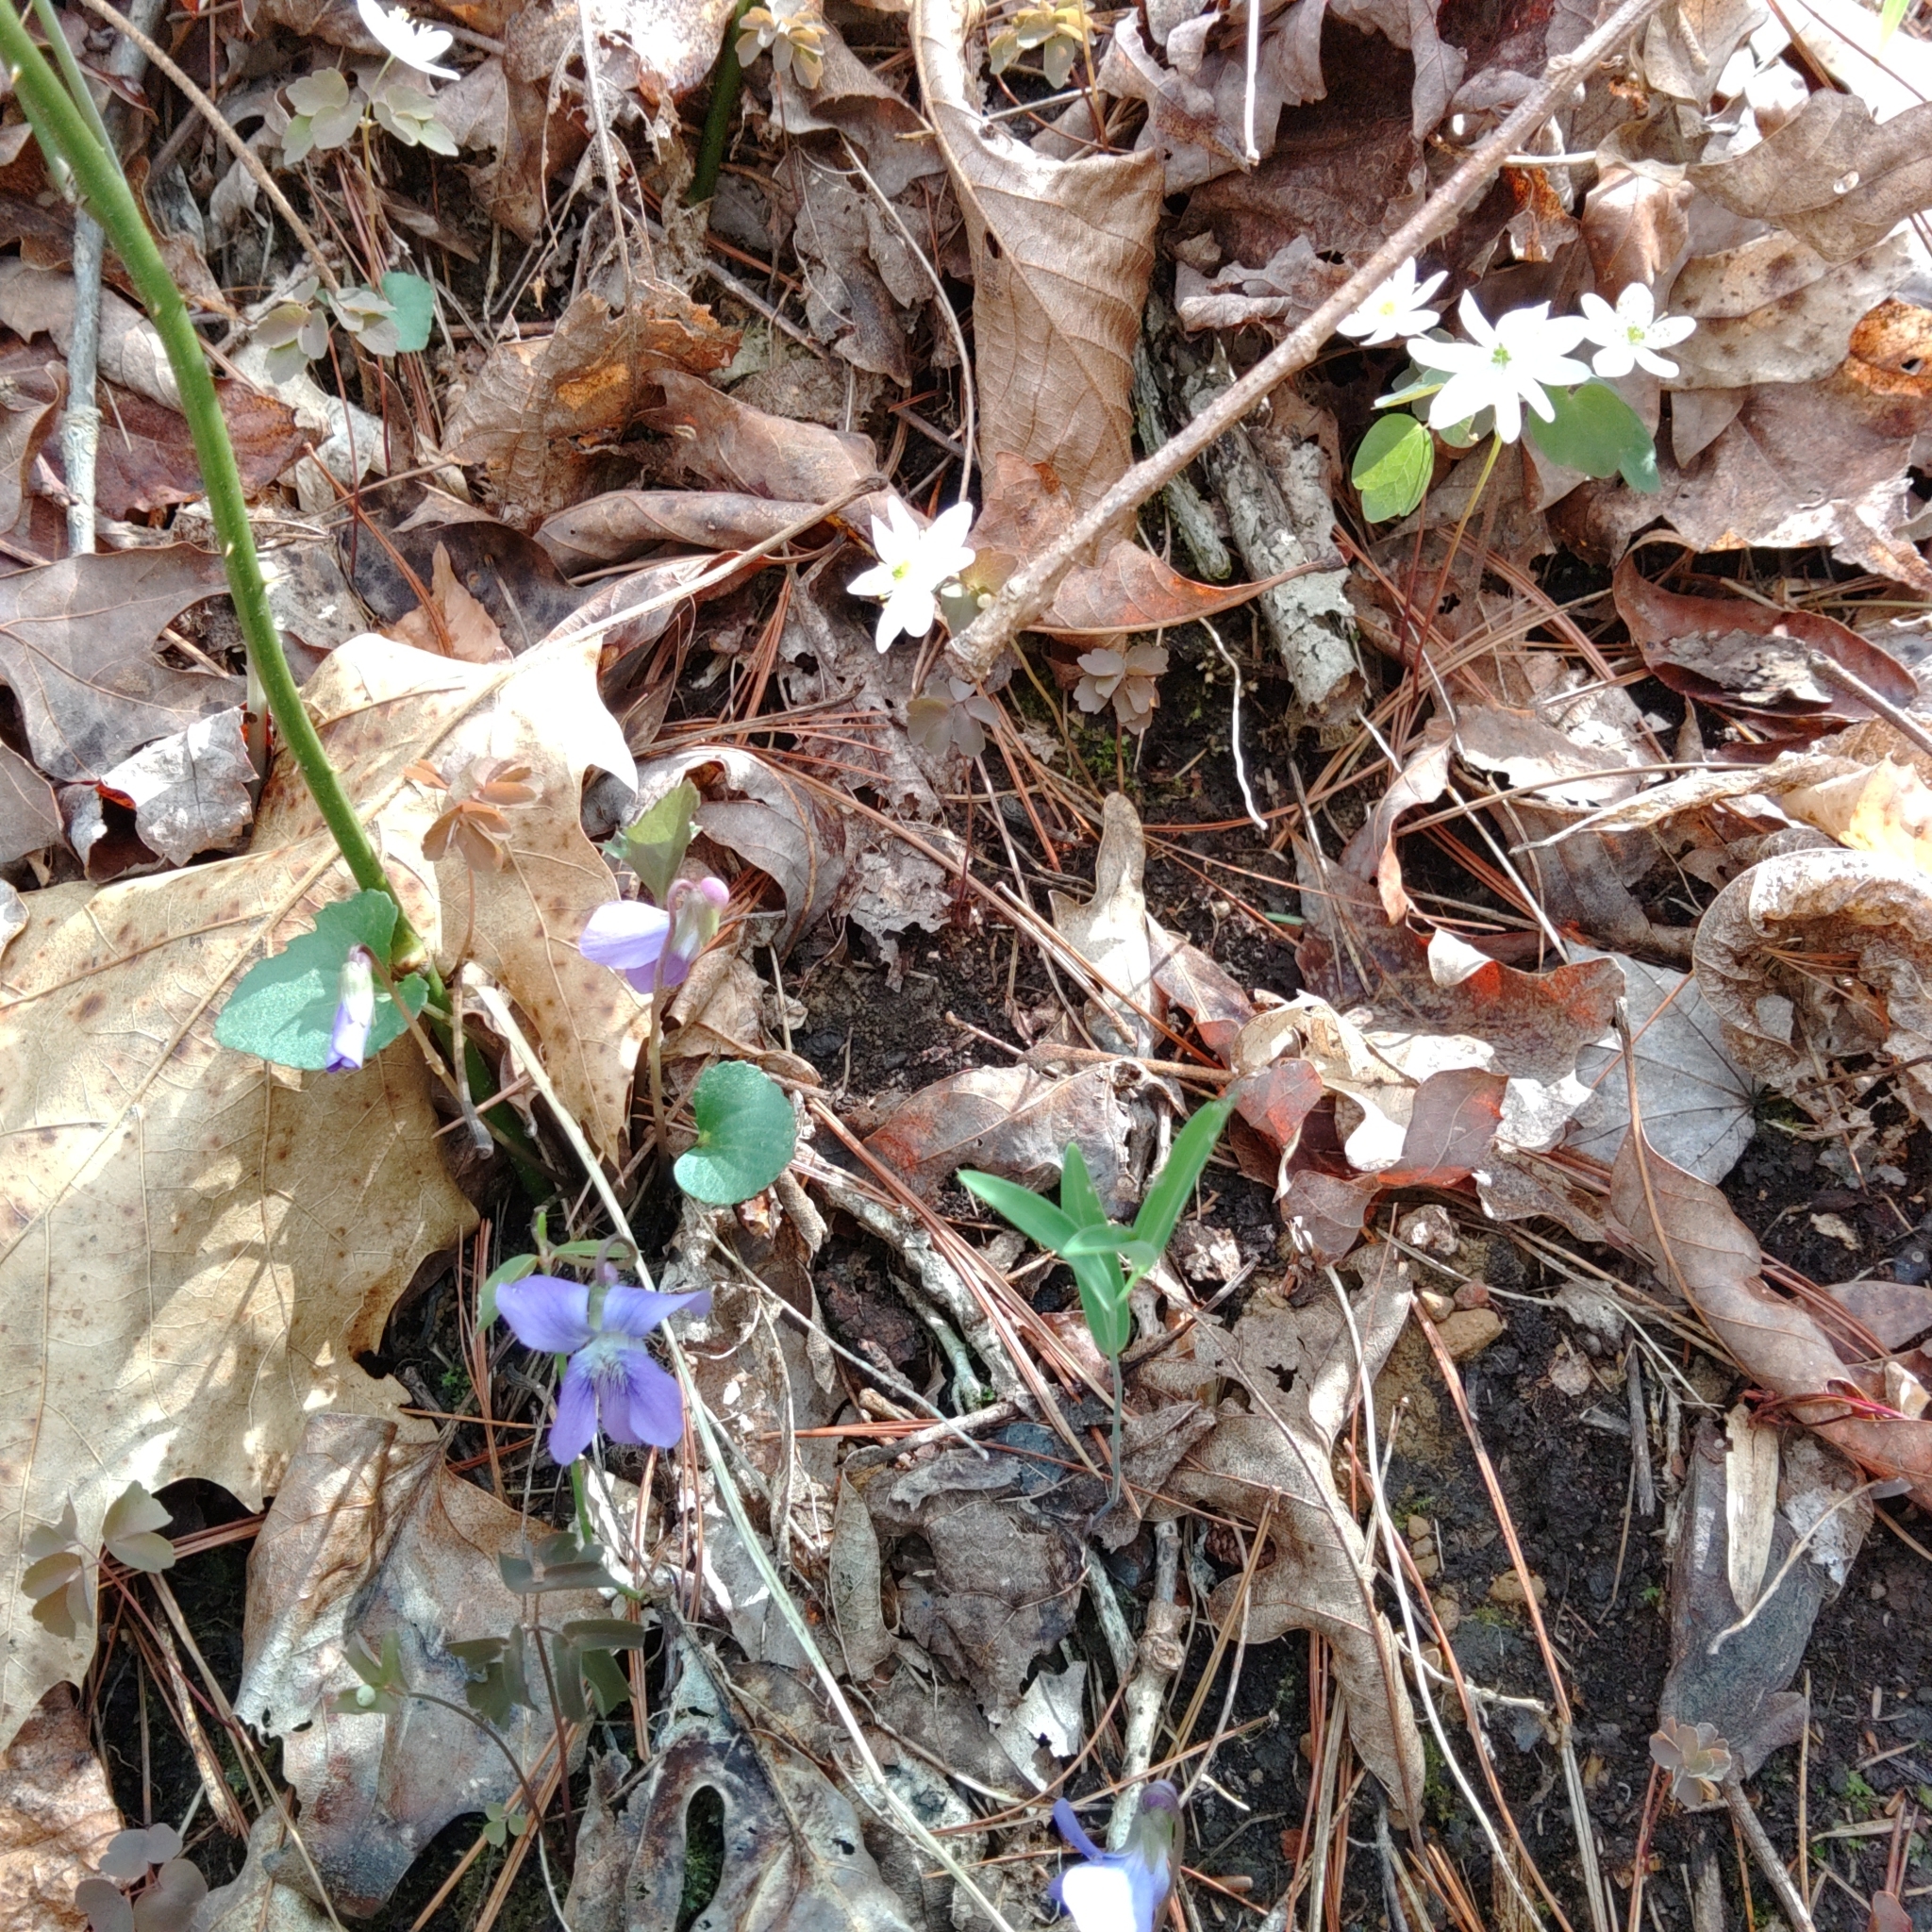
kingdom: Plantae
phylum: Tracheophyta
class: Magnoliopsida
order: Ranunculales
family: Ranunculaceae
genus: Thalictrum
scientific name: Thalictrum thalictroides
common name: Rue-anemone
